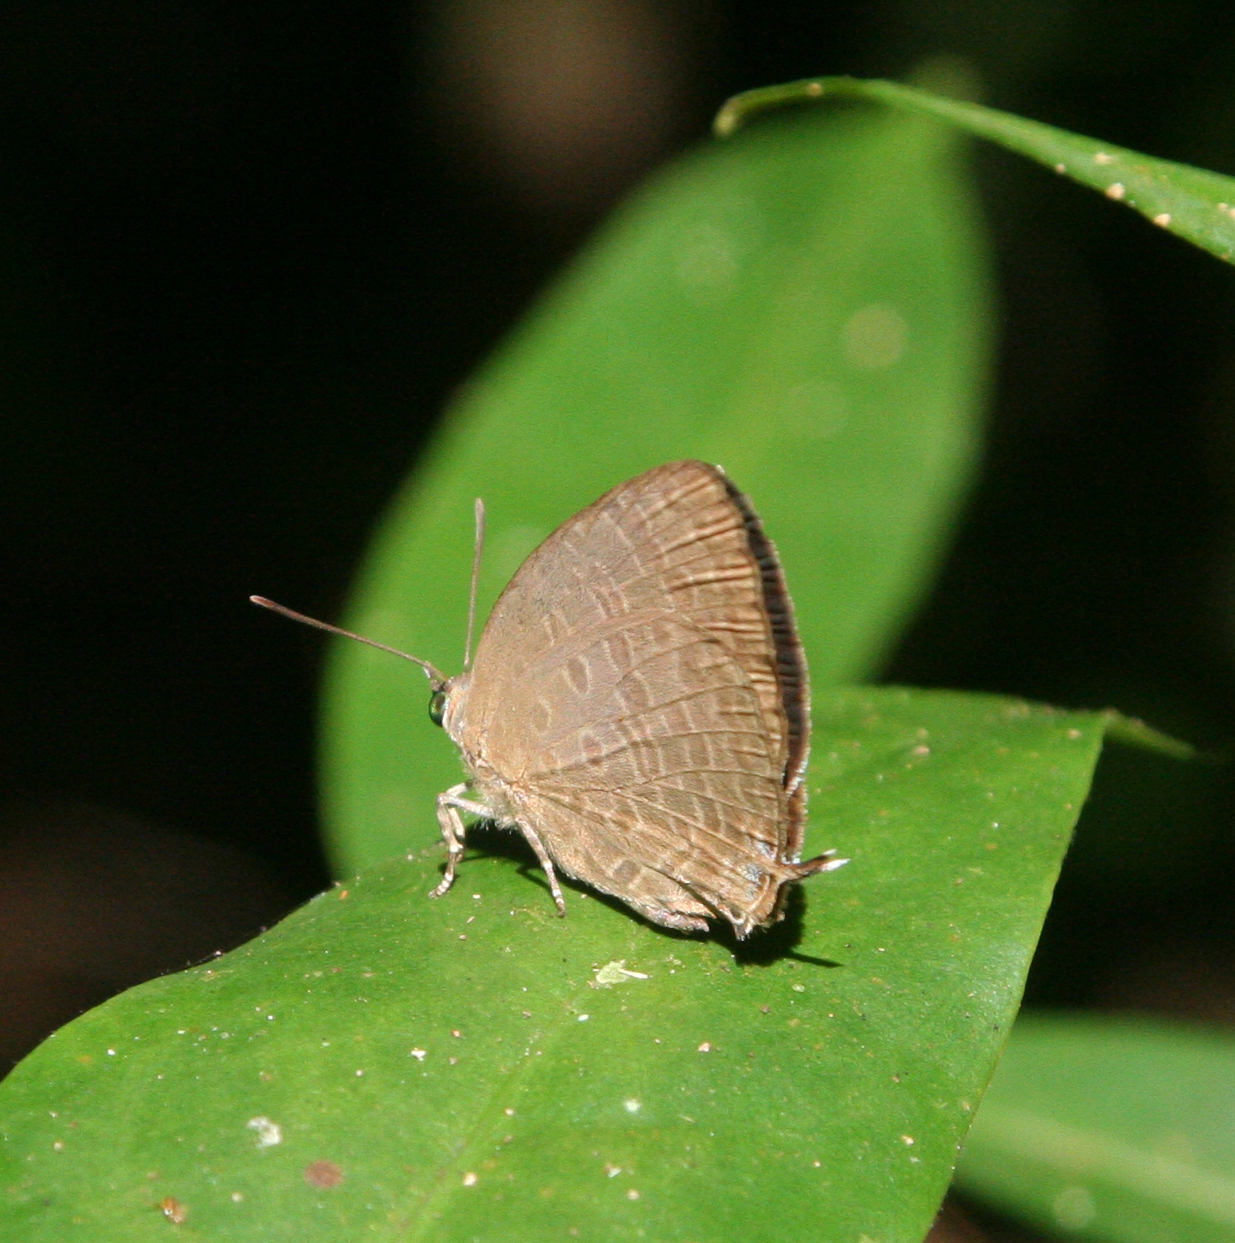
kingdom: Animalia
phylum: Arthropoda
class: Insecta
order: Lepidoptera
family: Lycaenidae
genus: Arhopala
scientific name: Arhopala elopura
